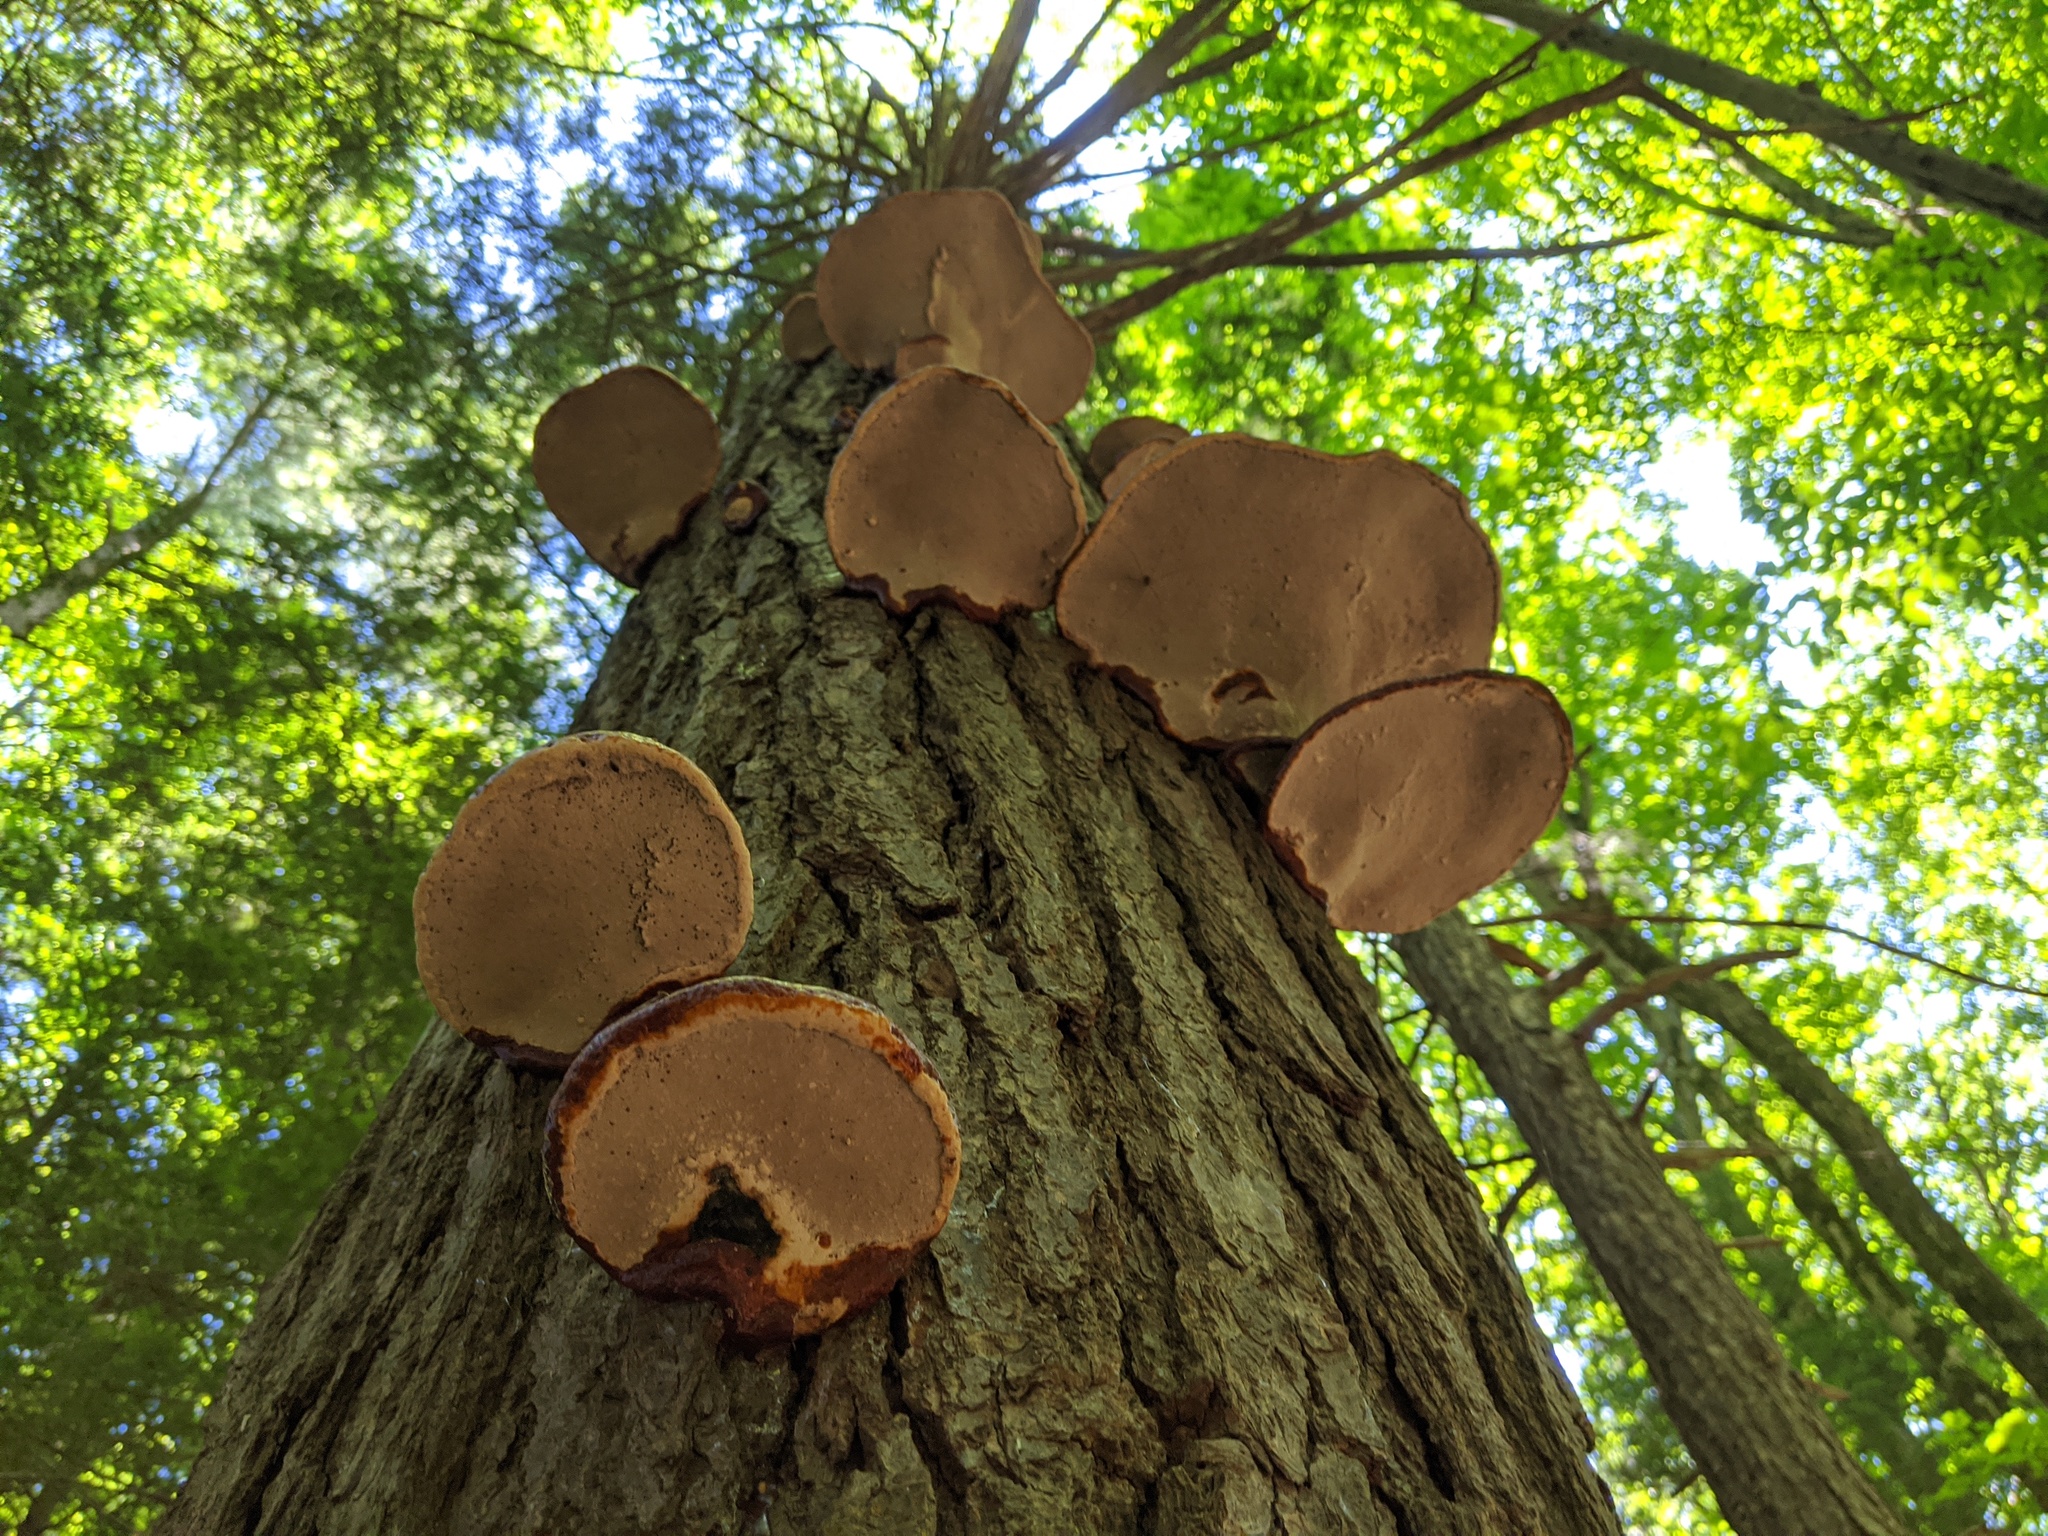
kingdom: Fungi
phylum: Basidiomycota
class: Agaricomycetes
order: Polyporales
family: Polyporaceae
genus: Ganoderma
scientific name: Ganoderma tsugae
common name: Hemlock varnish shelf
